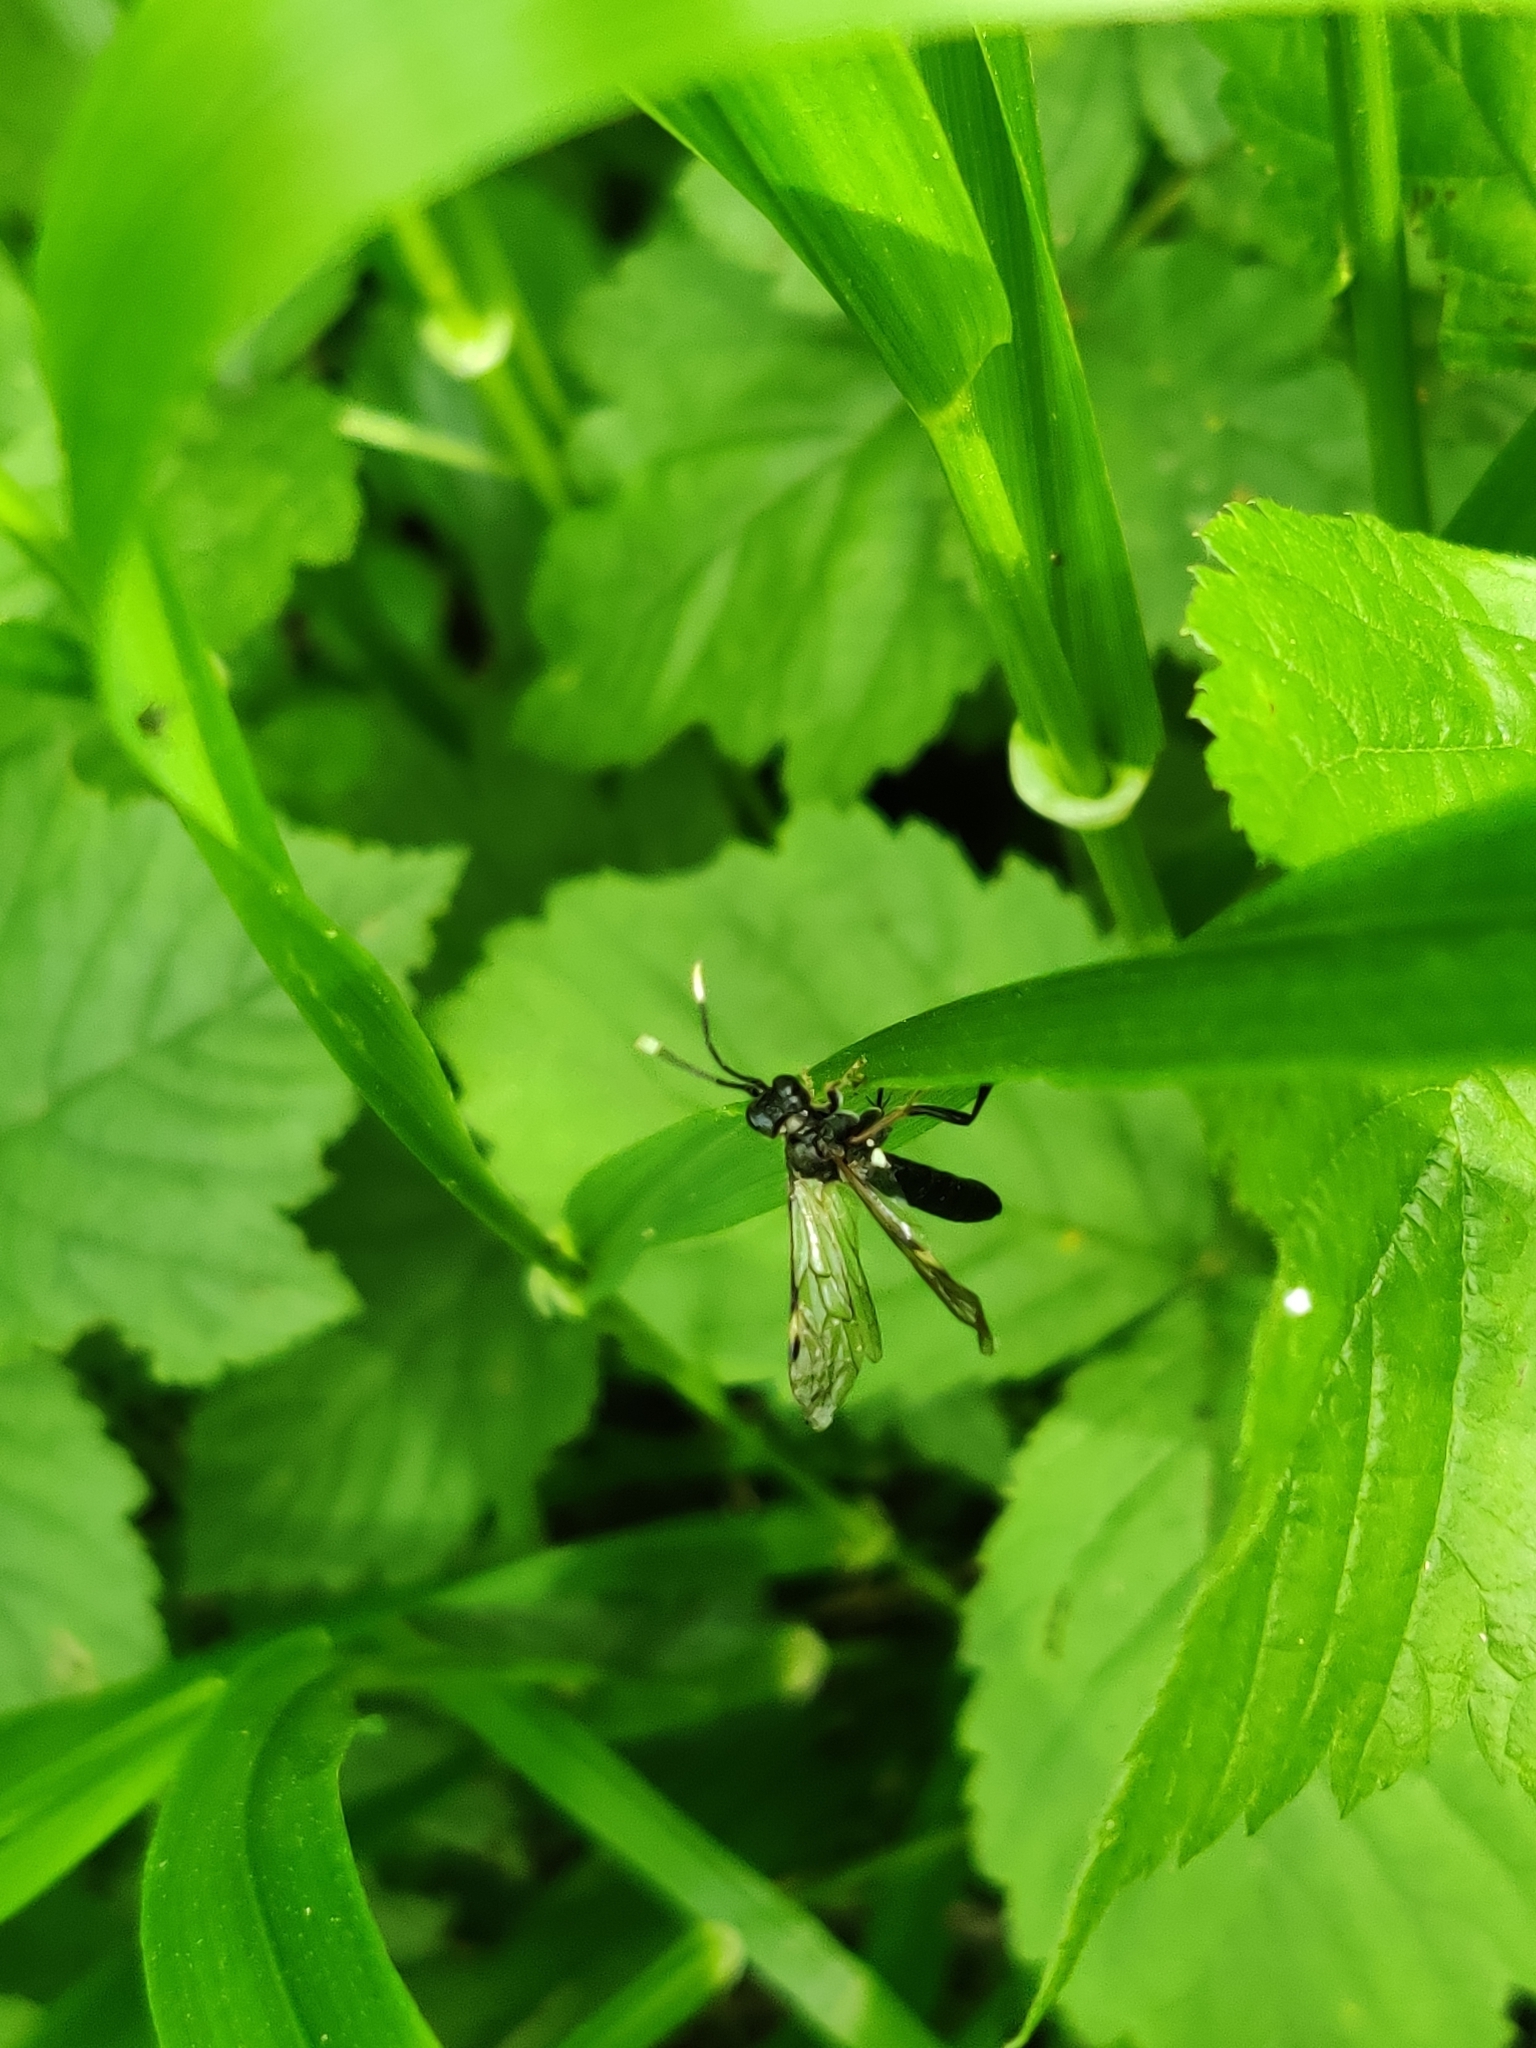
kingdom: Animalia
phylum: Arthropoda
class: Insecta
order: Hymenoptera
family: Tenthredinidae
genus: Tenthredo
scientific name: Tenthredo livida
